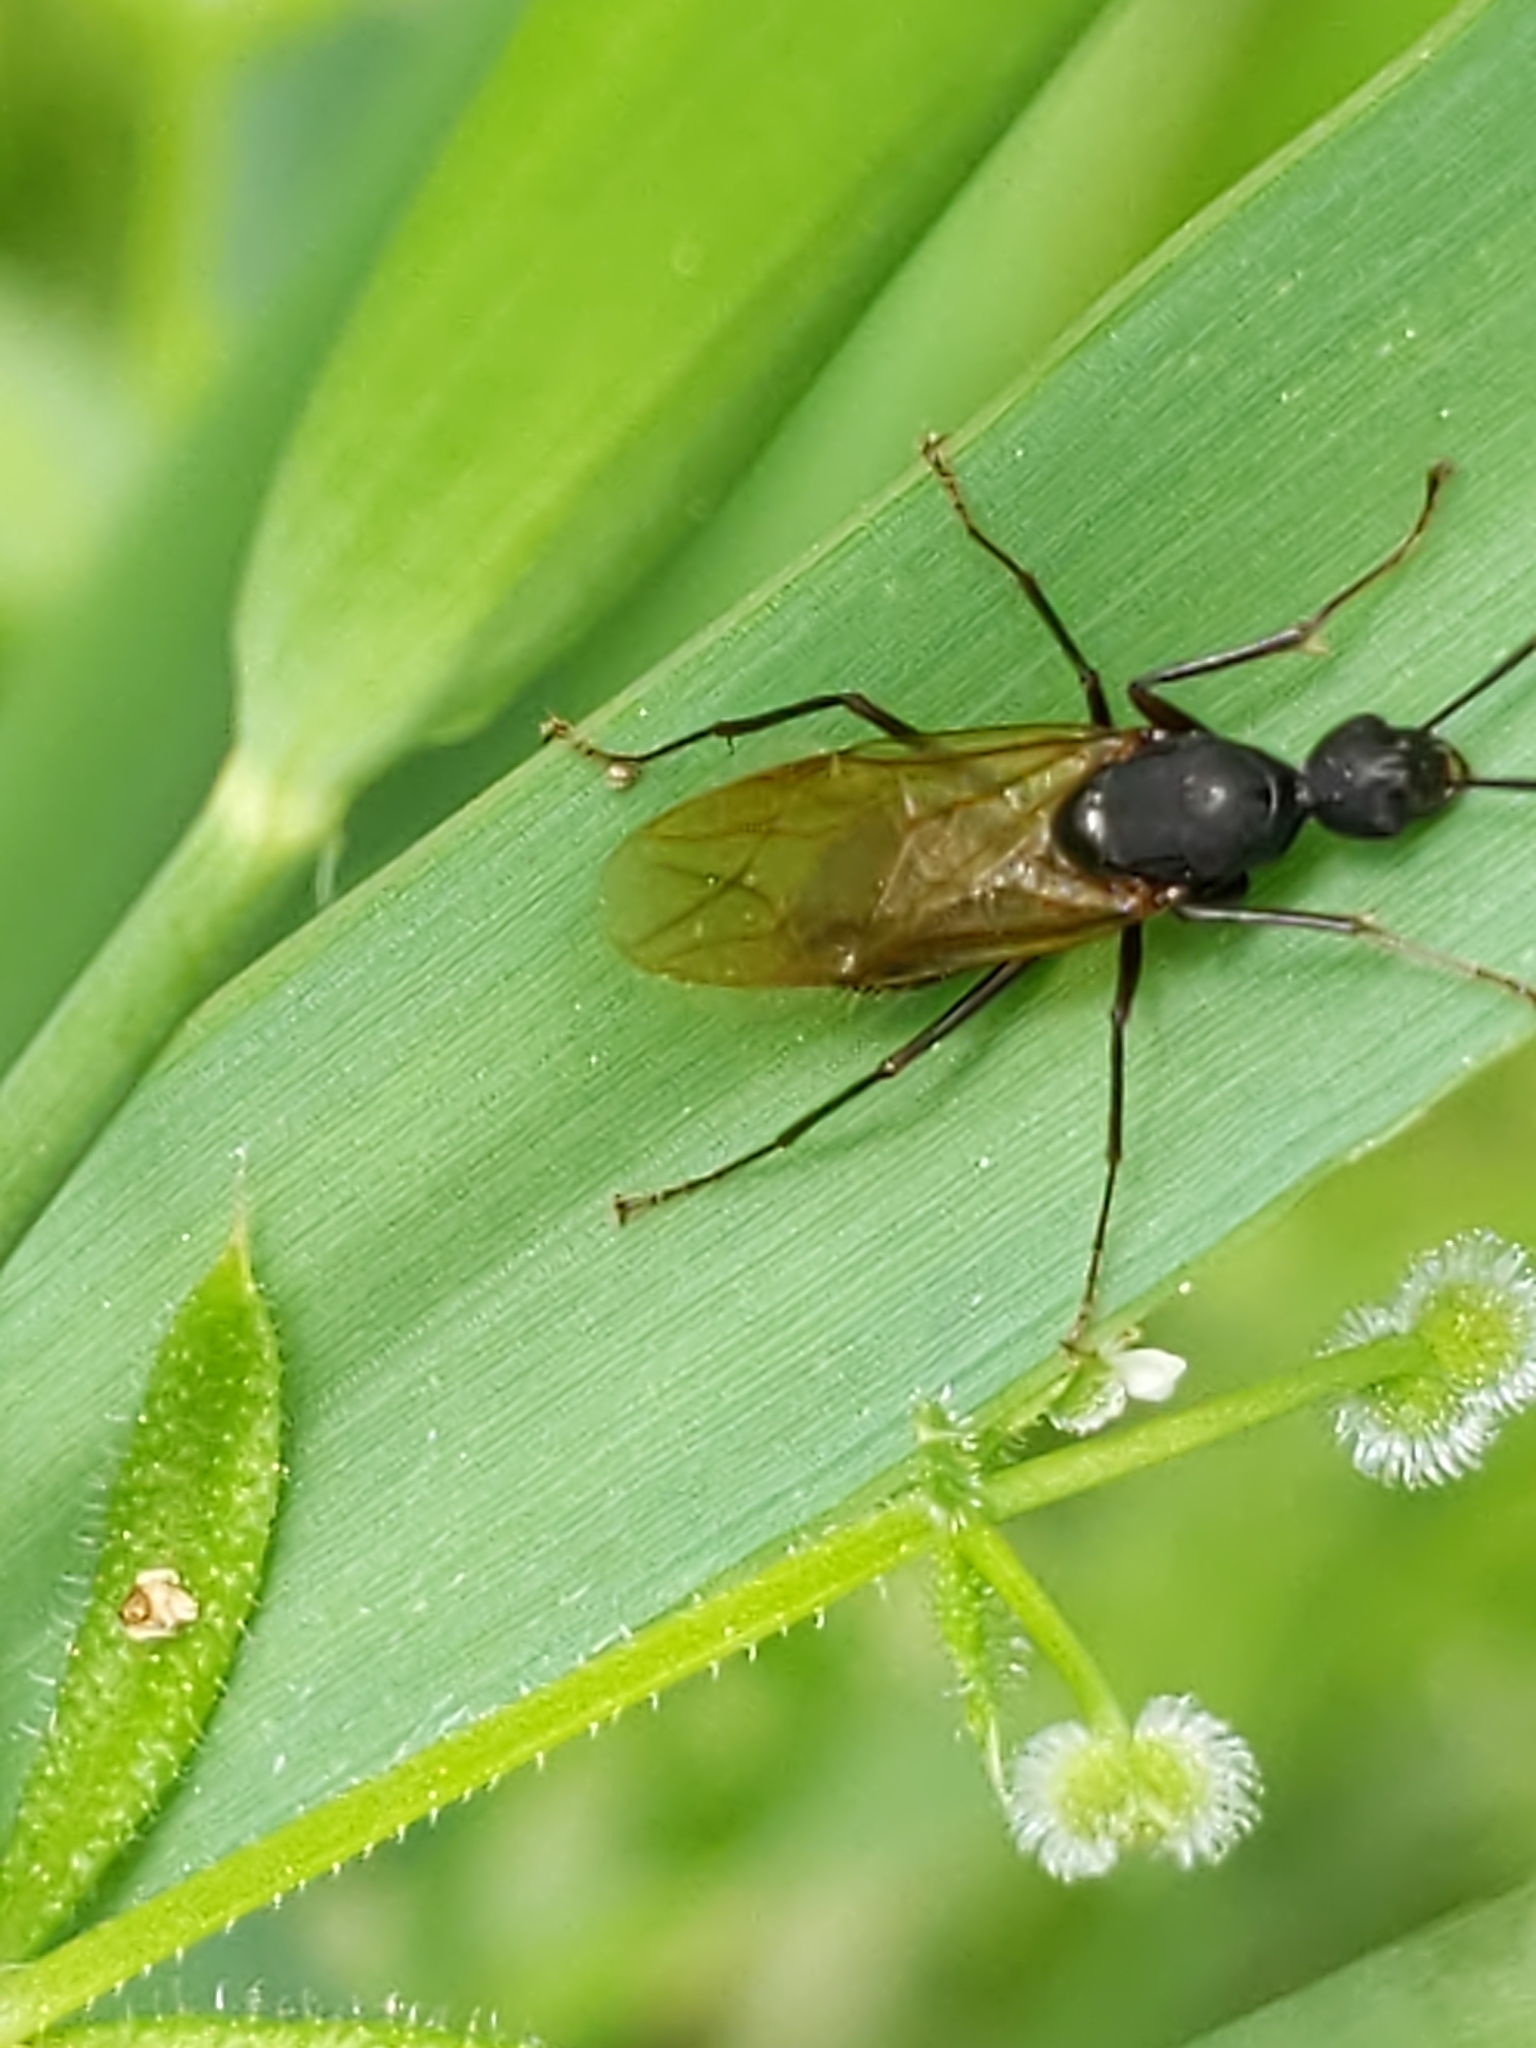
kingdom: Animalia
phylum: Arthropoda
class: Insecta
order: Hymenoptera
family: Formicidae
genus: Camponotus
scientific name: Camponotus pennsylvanicus
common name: Black carpenter ant
